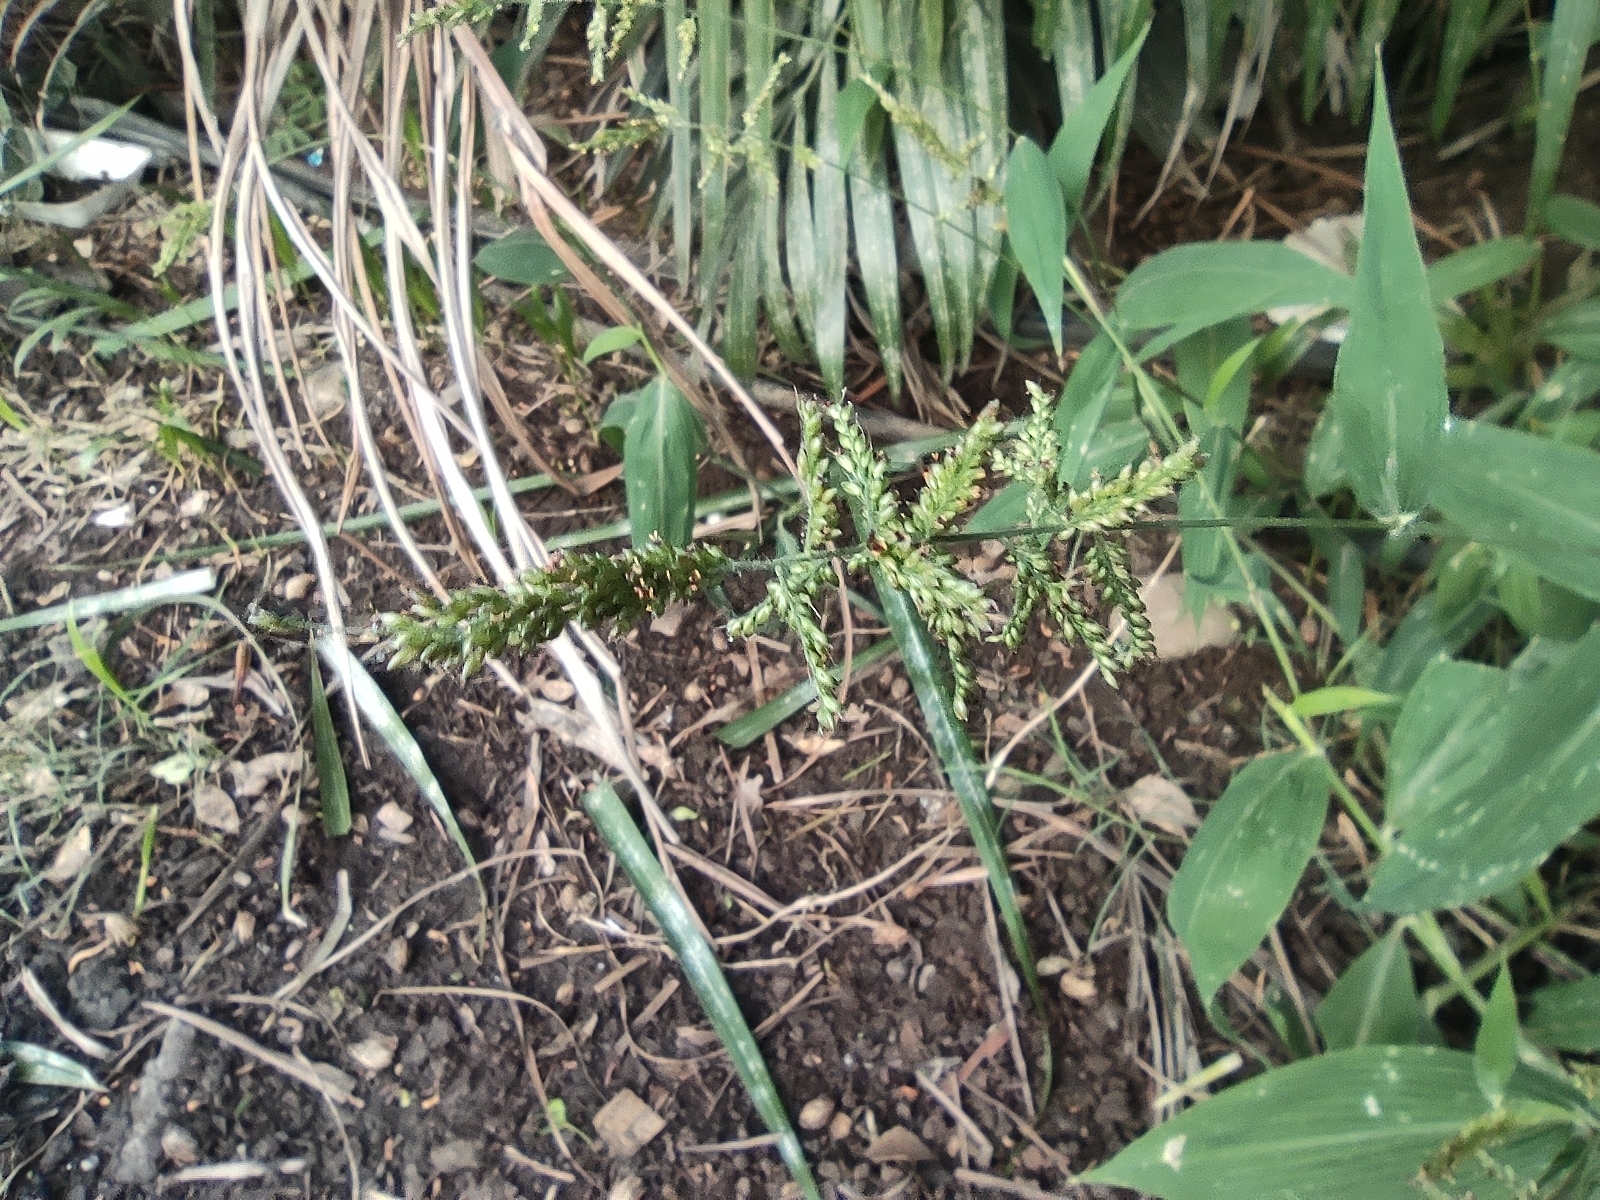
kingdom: Plantae
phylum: Tracheophyta
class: Liliopsida
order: Poales
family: Poaceae
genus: Setaria
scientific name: Setaria barbata
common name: East indian bristlegrass
